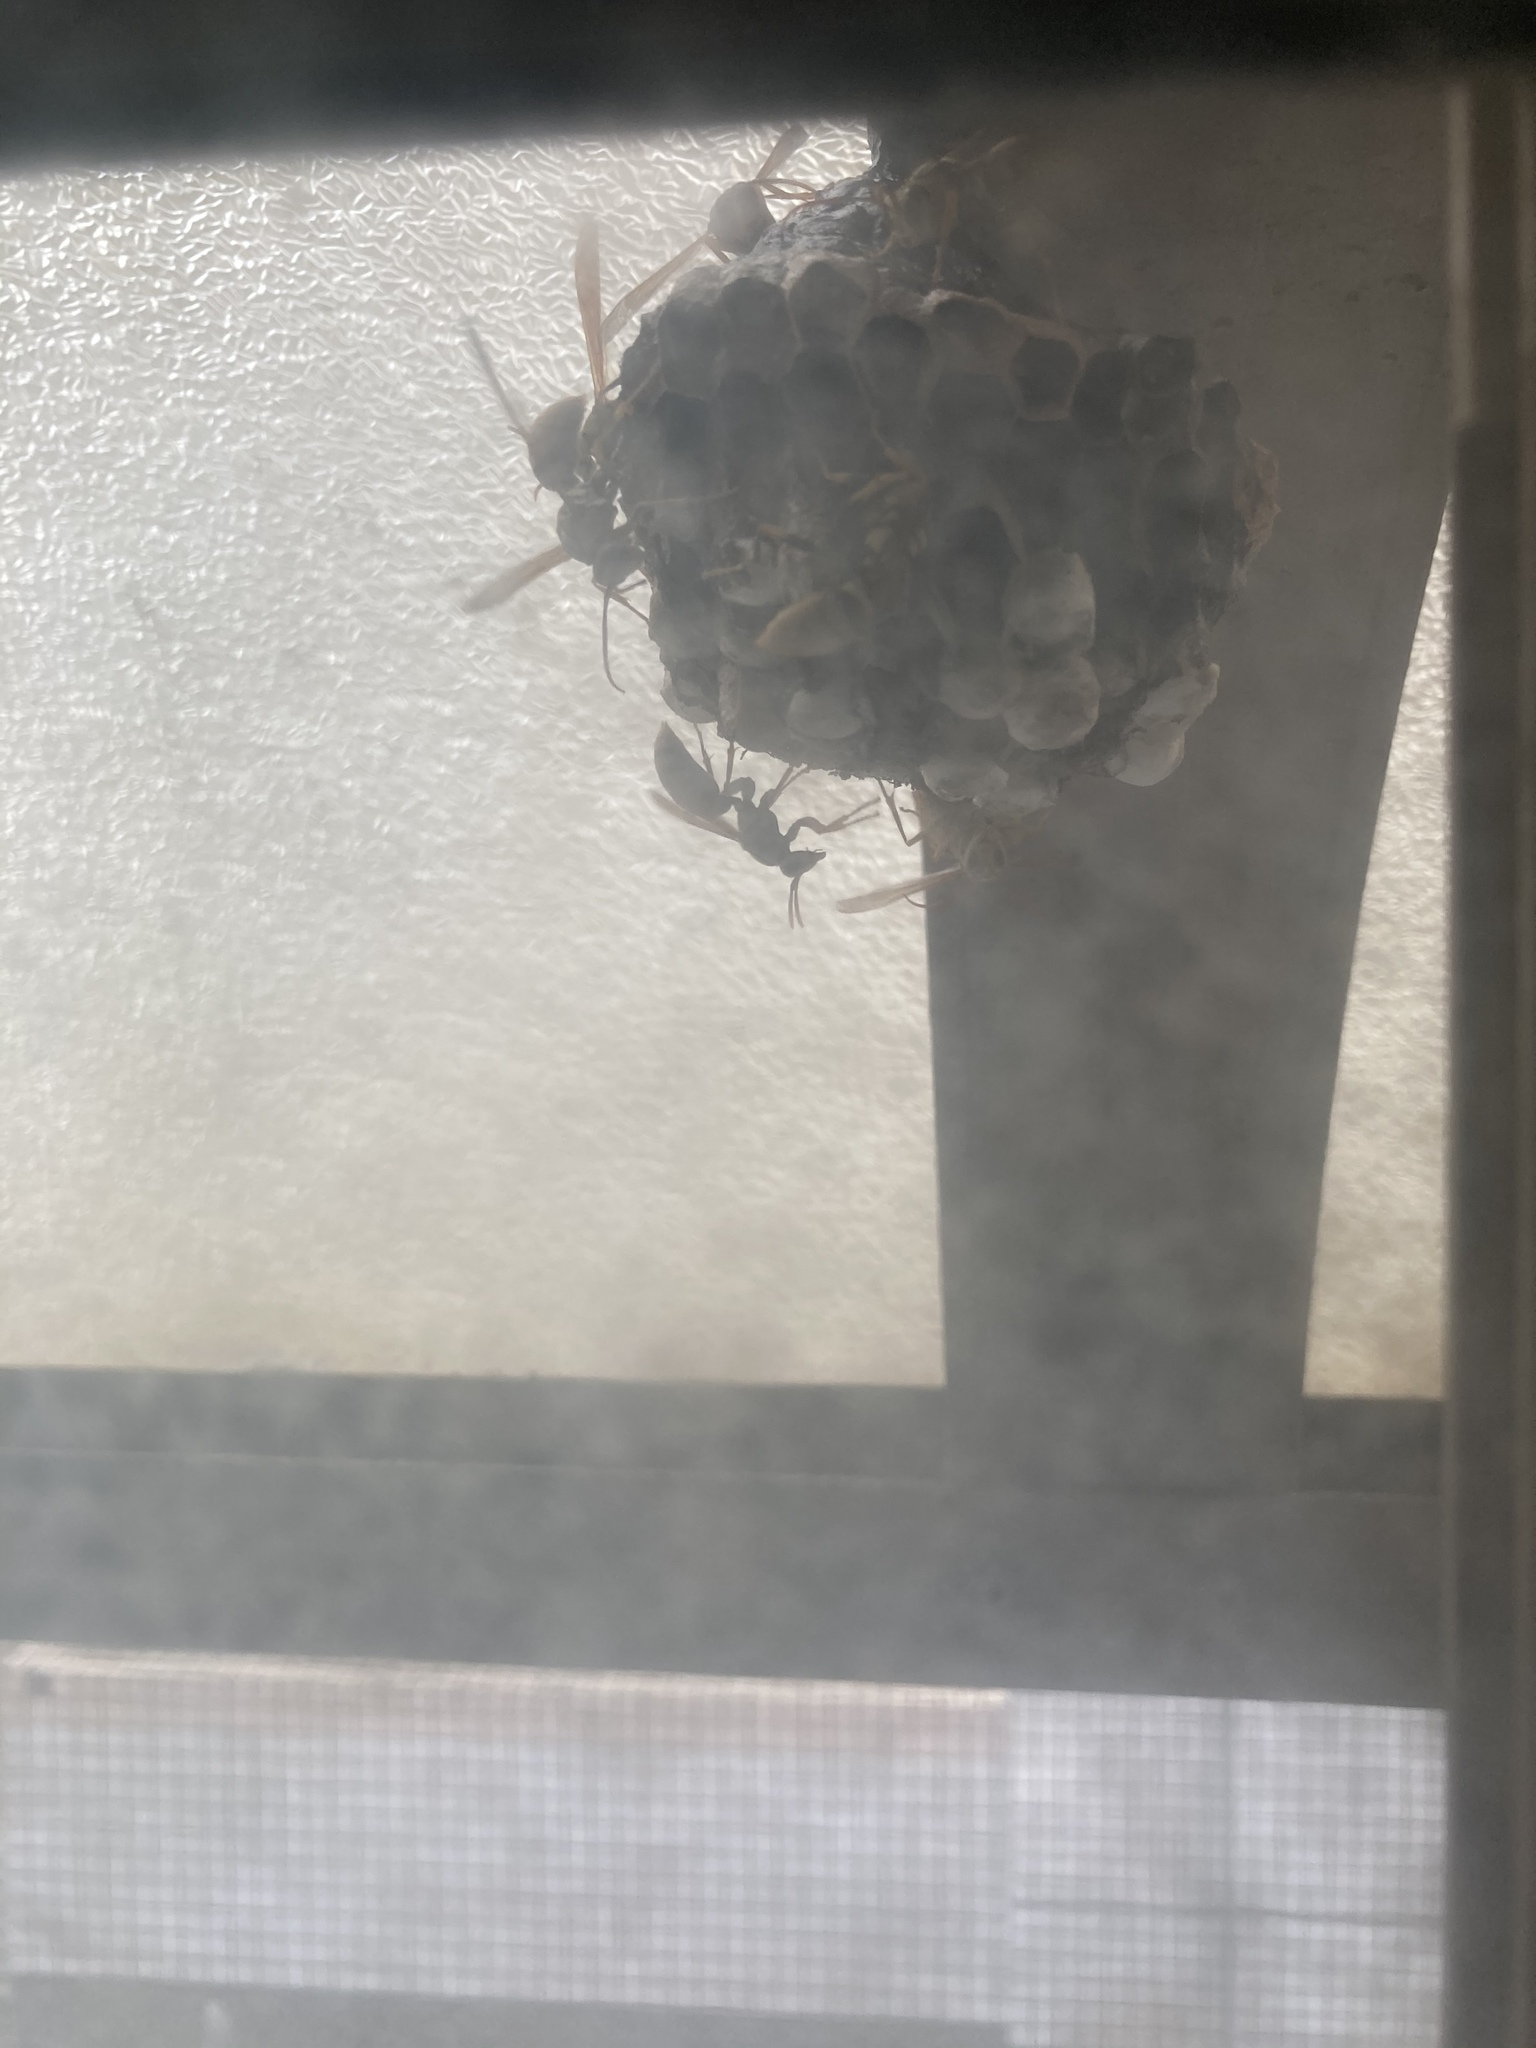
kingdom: Animalia
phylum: Arthropoda
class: Insecta
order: Hymenoptera
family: Eumenidae
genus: Polistes
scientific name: Polistes rothneyi
